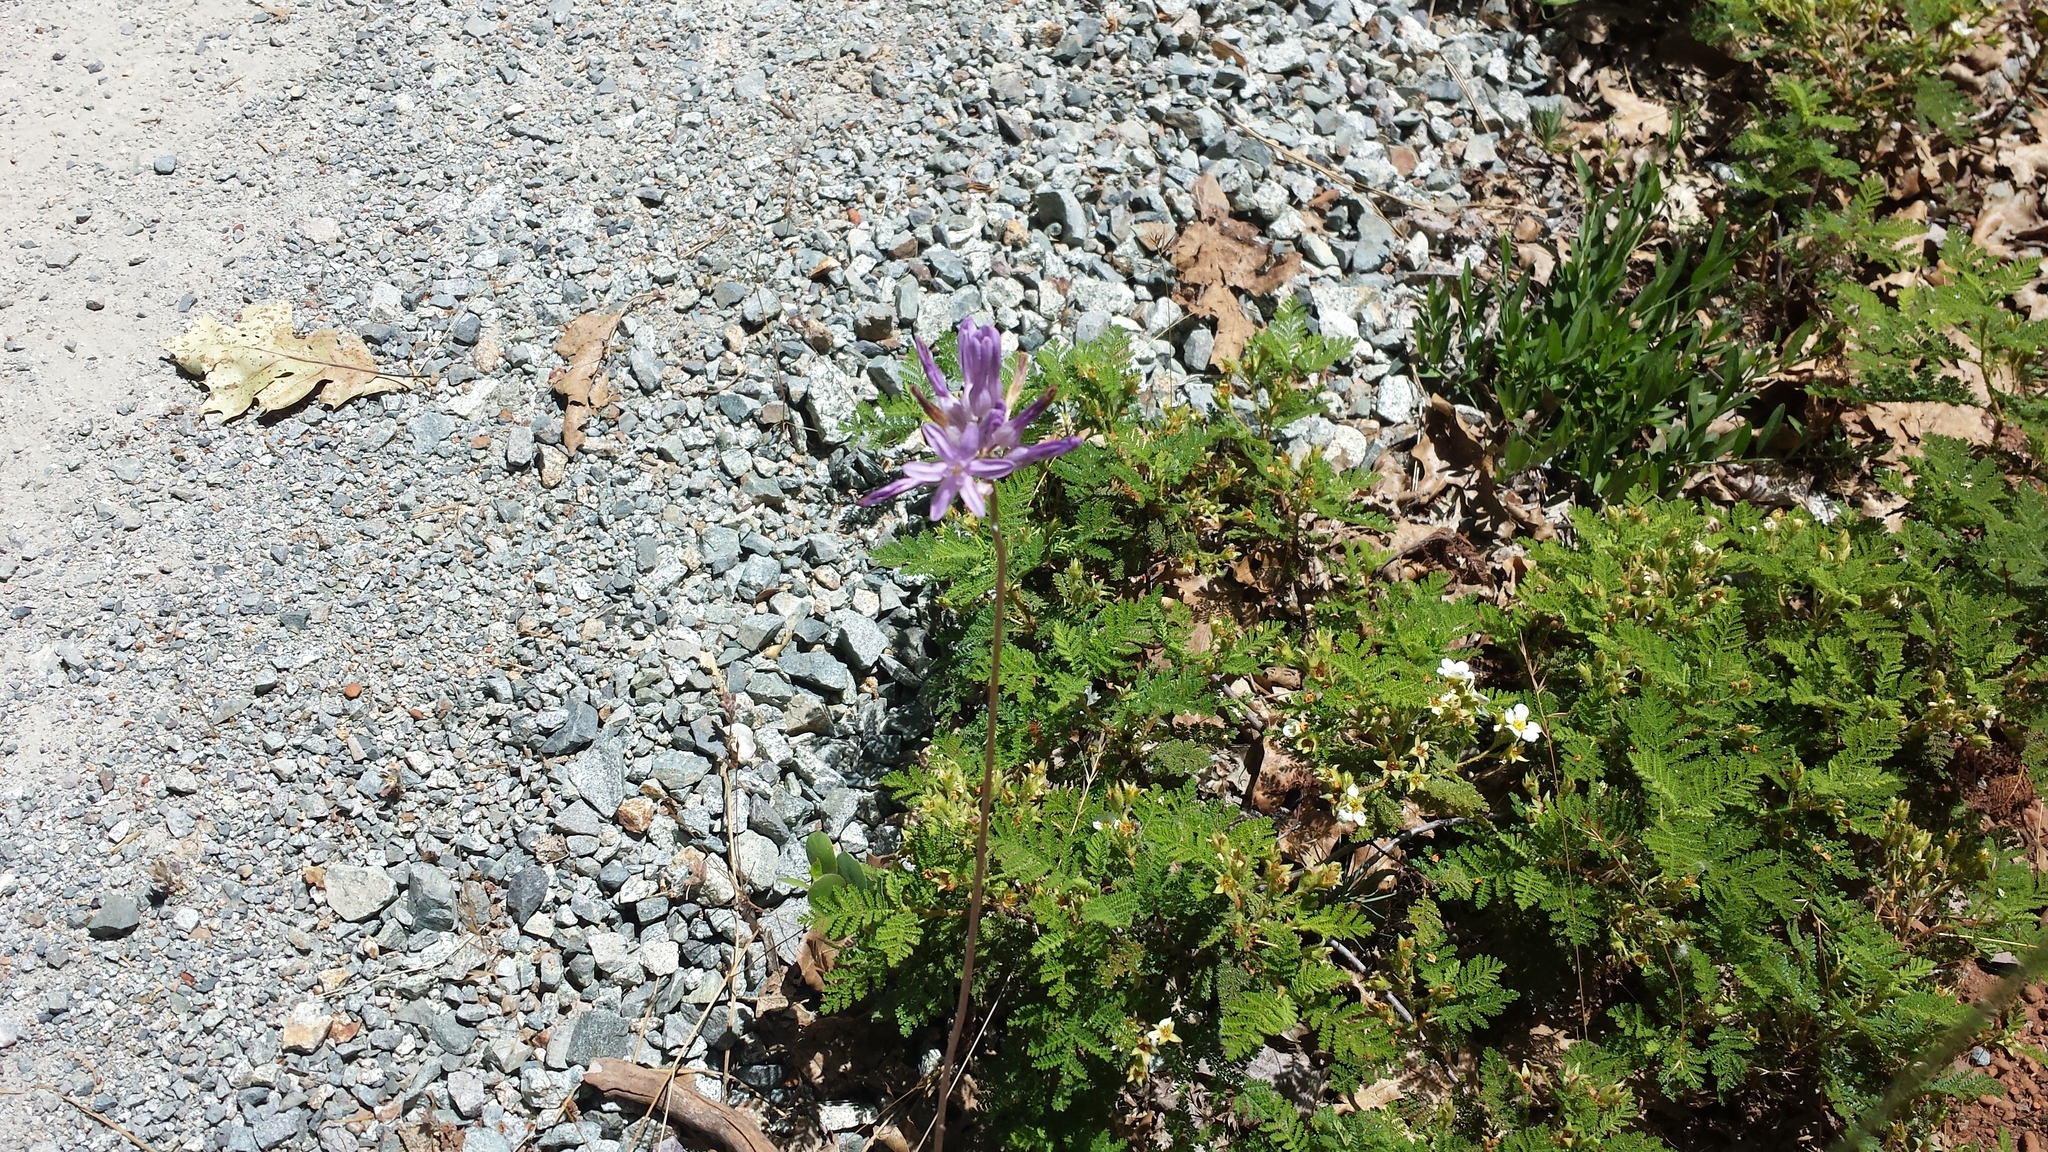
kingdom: Plantae
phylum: Tracheophyta
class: Liliopsida
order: Asparagales
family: Asparagaceae
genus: Dichelostemma
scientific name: Dichelostemma multiflorum
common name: Round-tooth ookow
